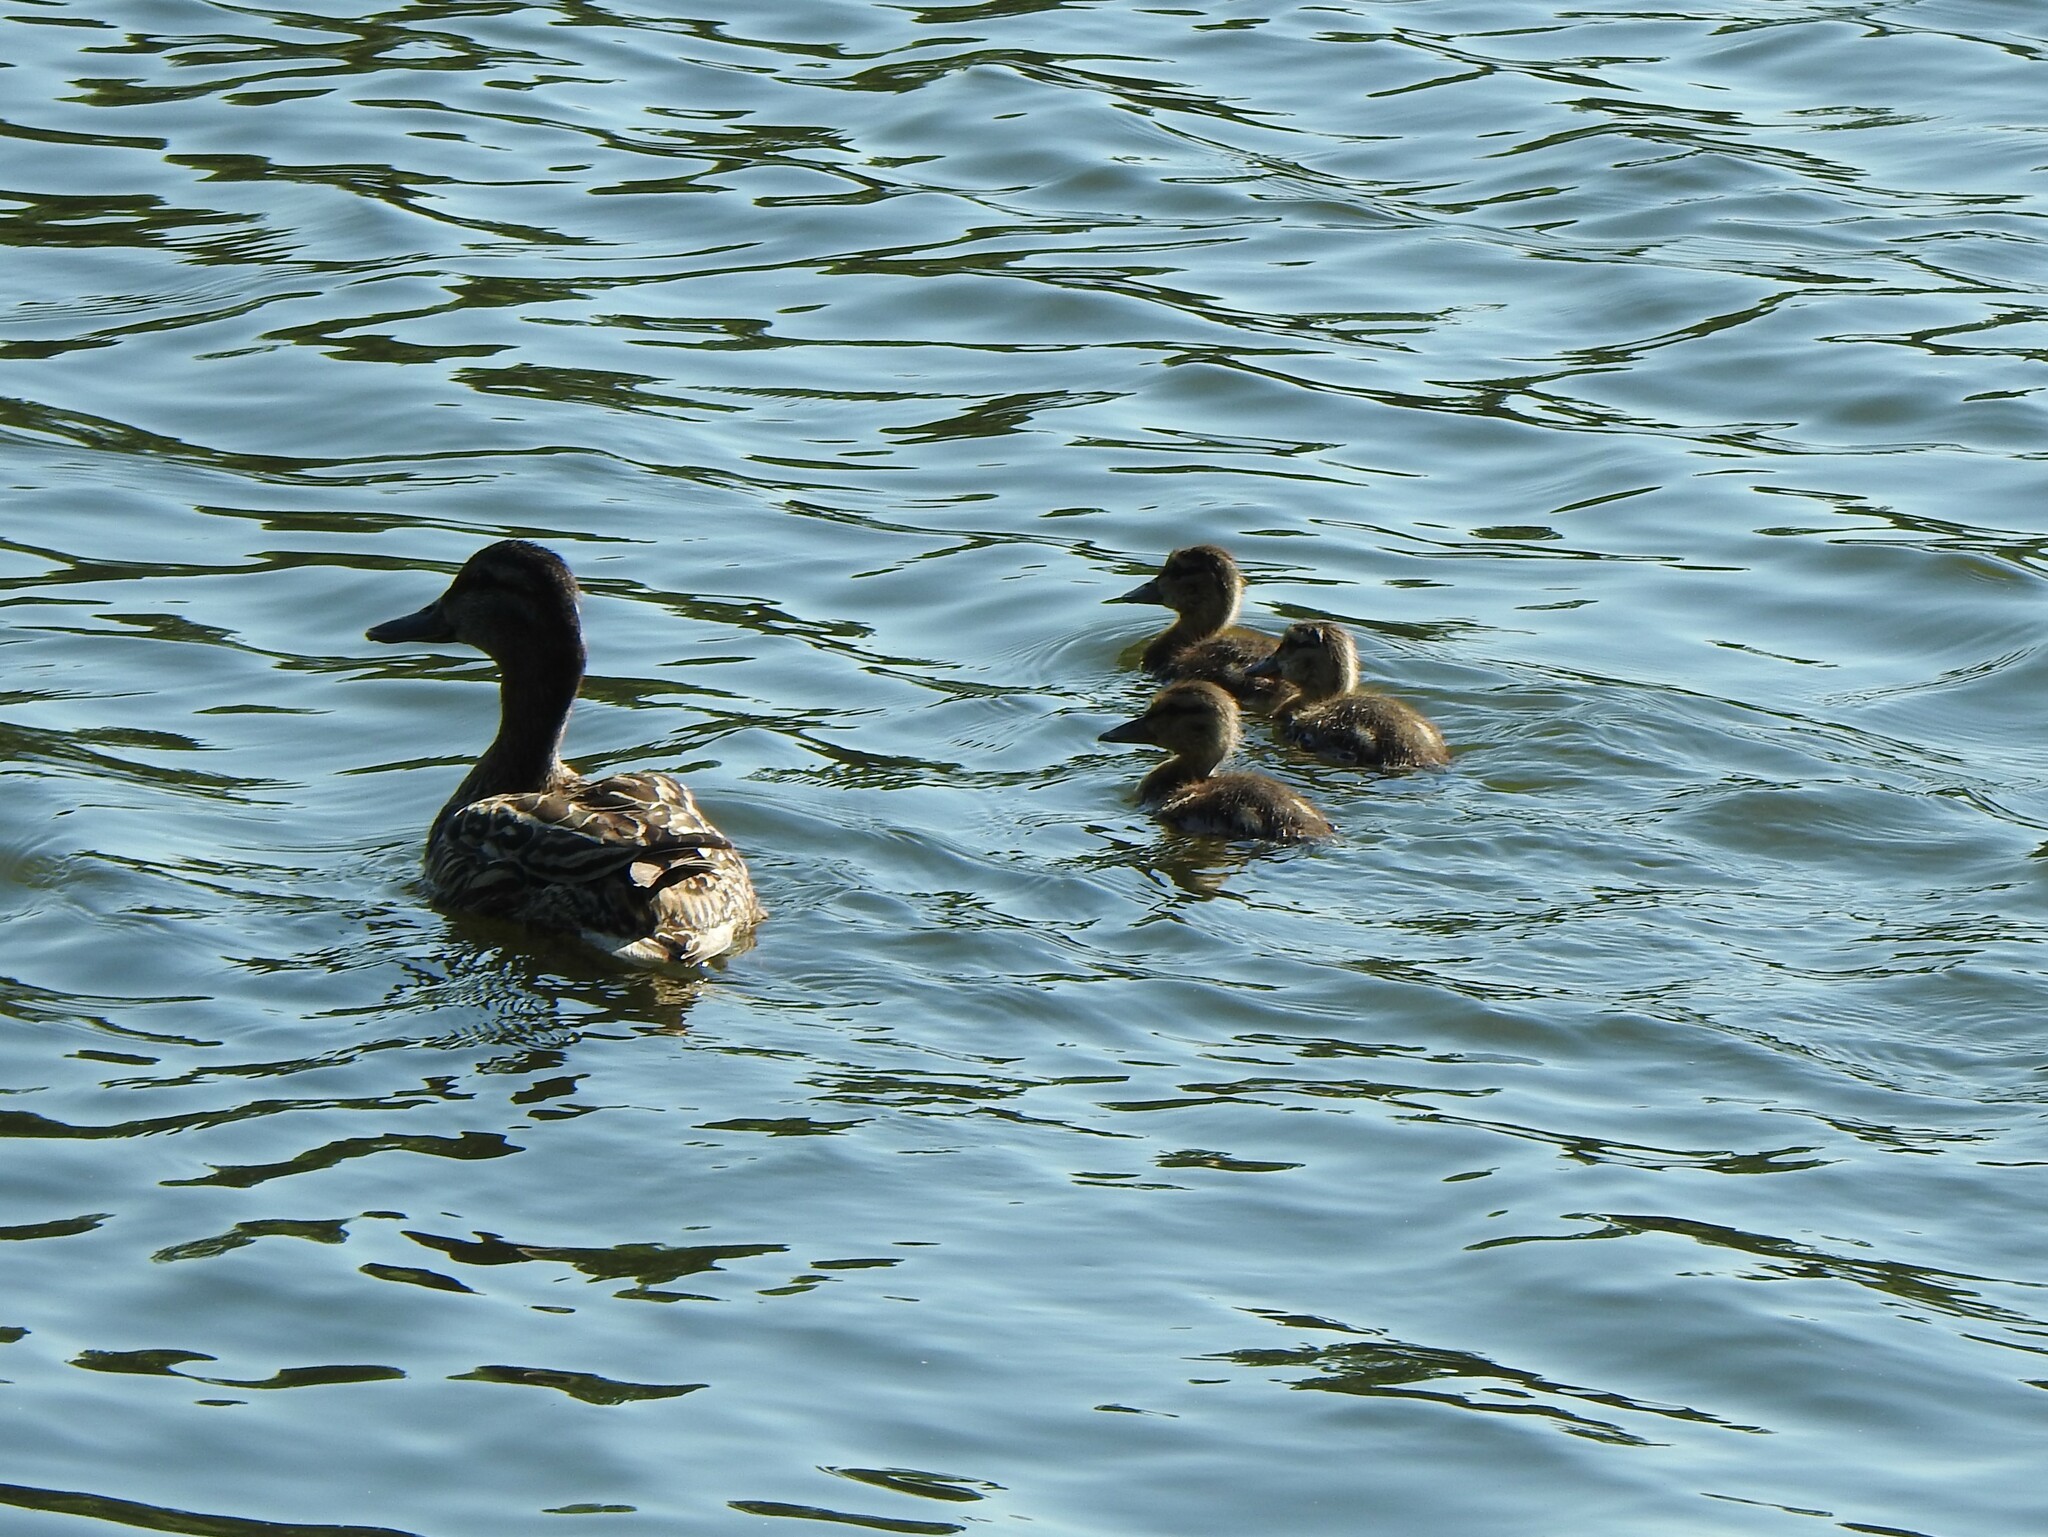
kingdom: Animalia
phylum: Chordata
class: Aves
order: Anseriformes
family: Anatidae
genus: Anas
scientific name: Anas platyrhynchos
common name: Mallard
